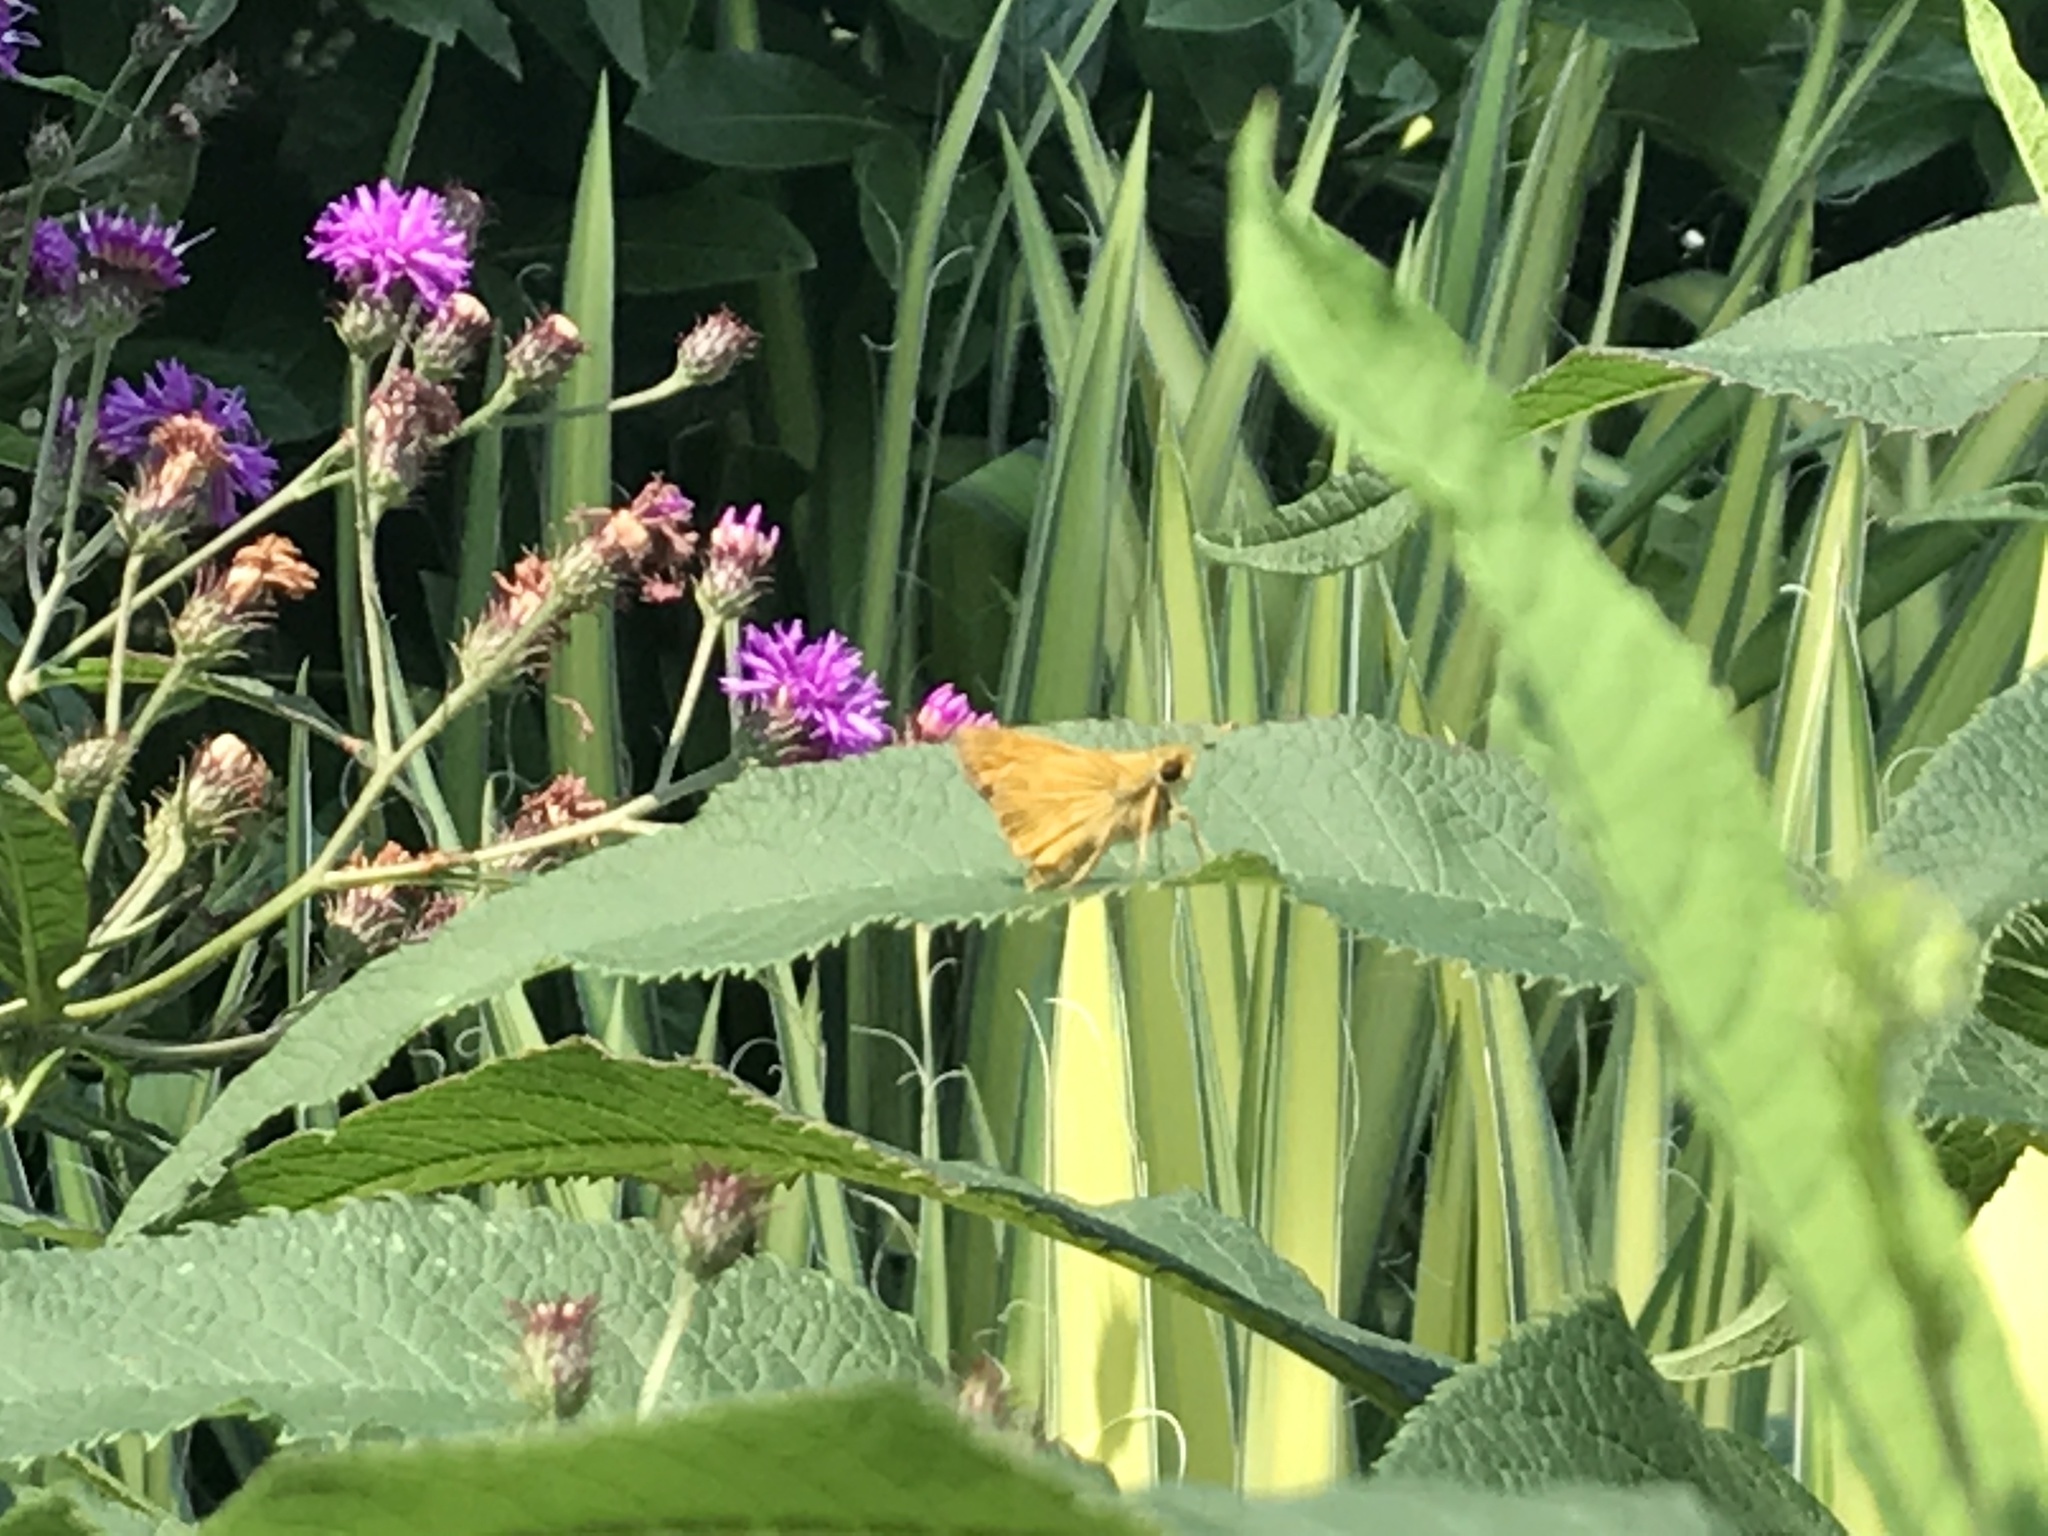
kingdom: Animalia
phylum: Arthropoda
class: Insecta
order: Lepidoptera
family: Hesperiidae
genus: Atalopedes
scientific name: Atalopedes
